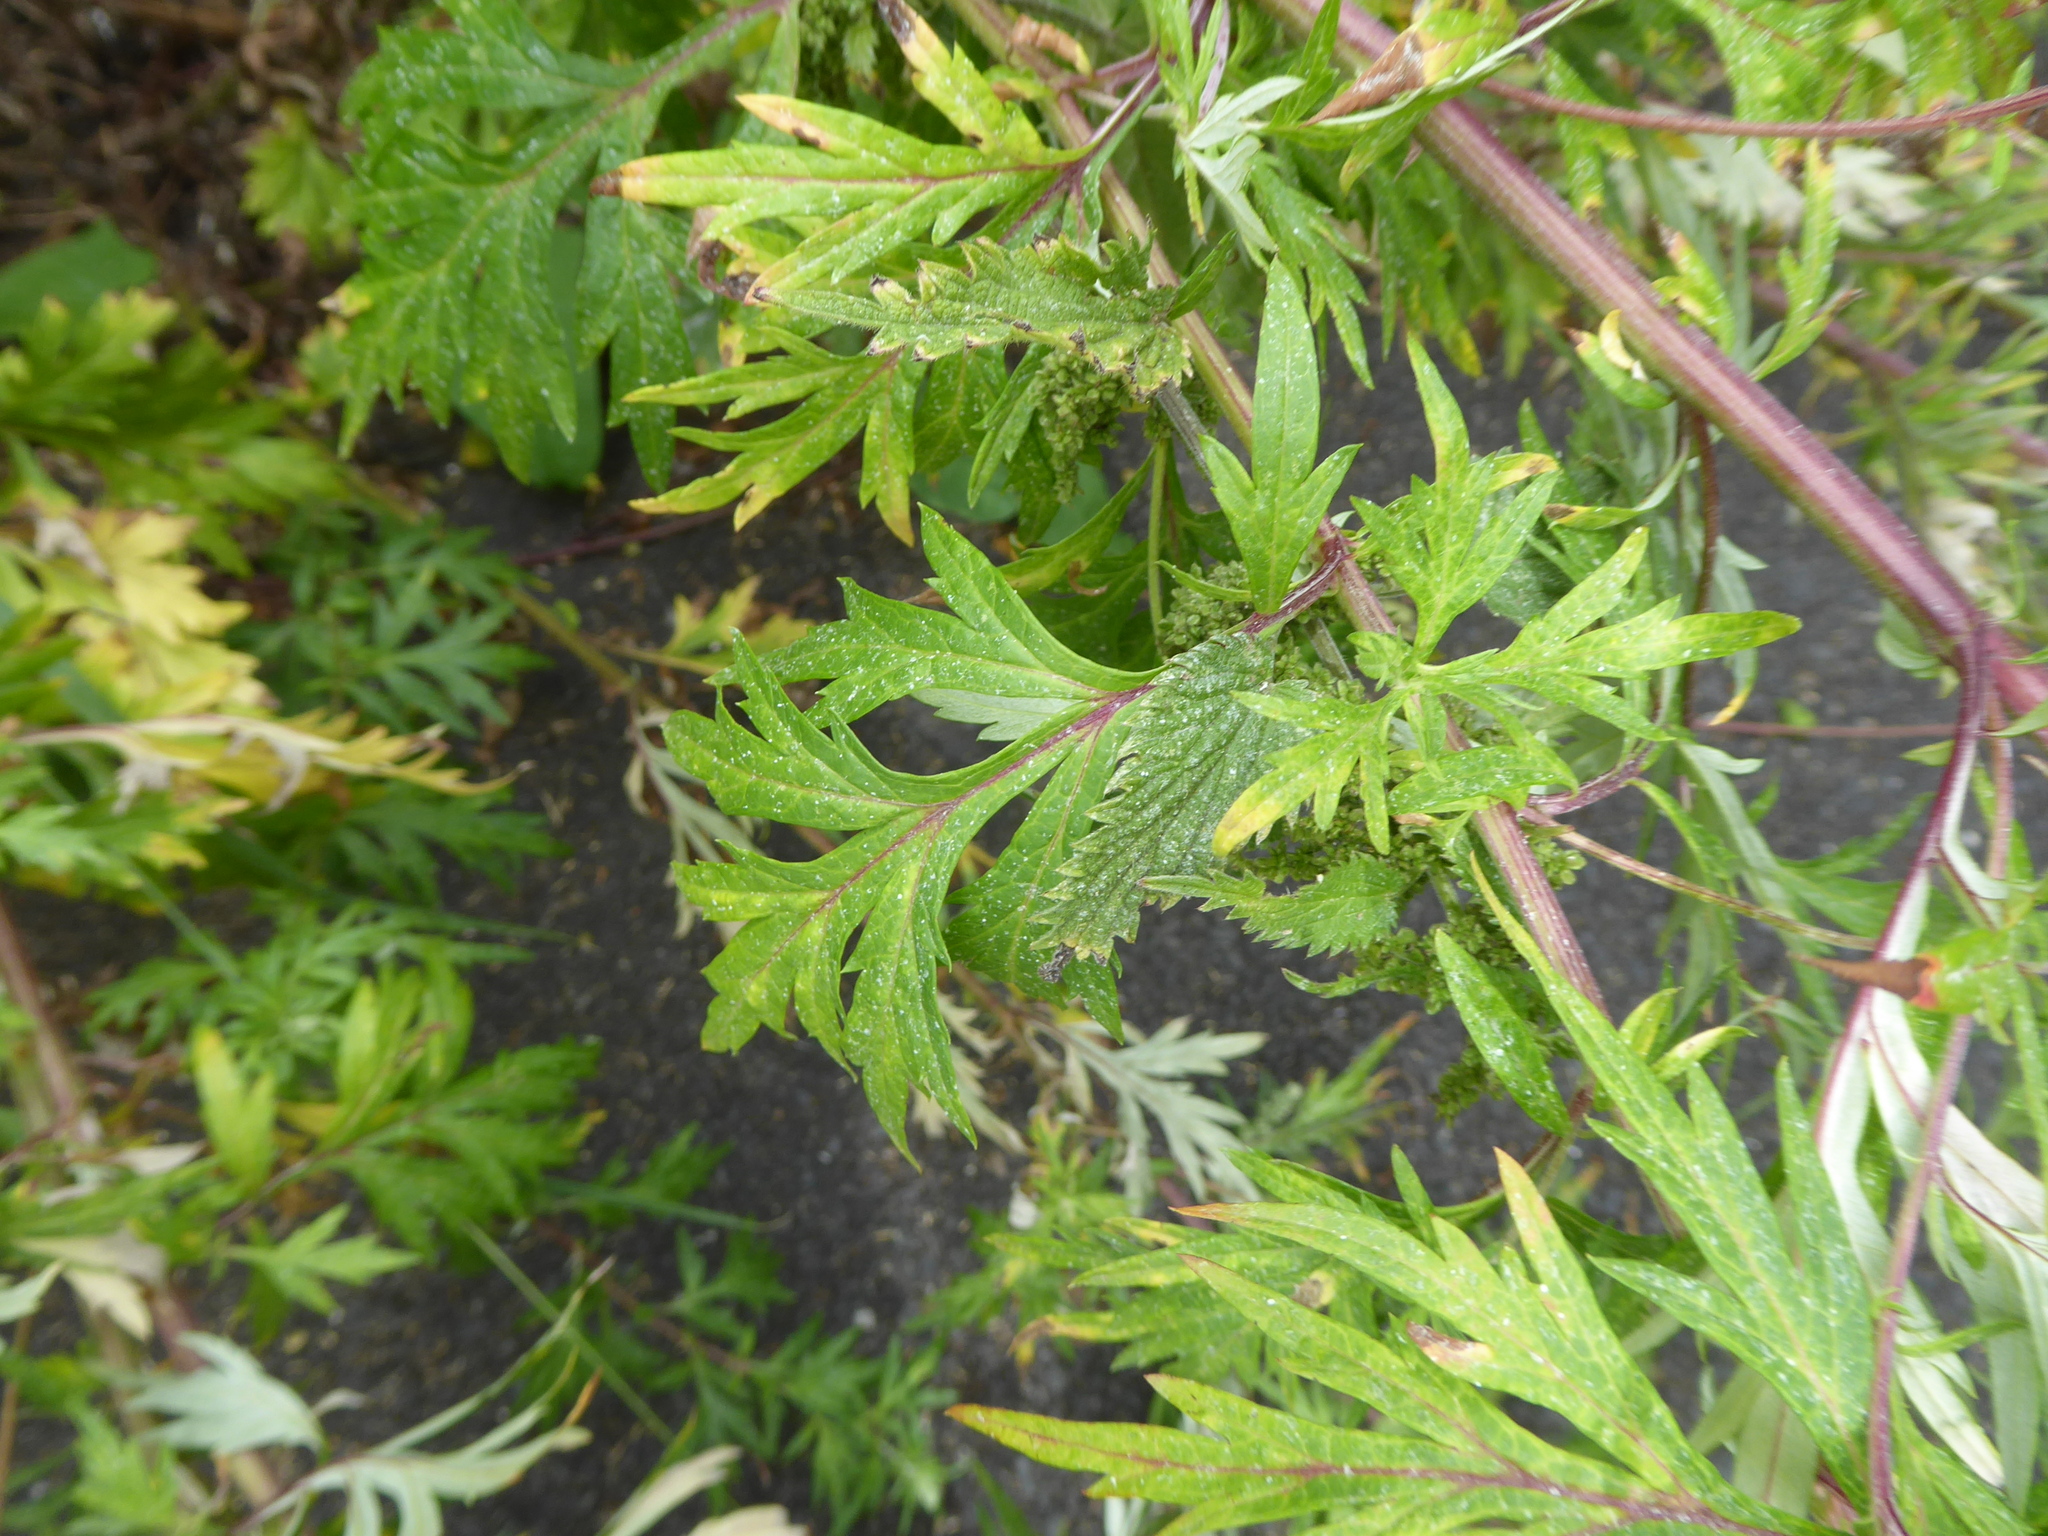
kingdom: Plantae
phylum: Tracheophyta
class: Magnoliopsida
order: Asterales
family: Asteraceae
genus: Artemisia
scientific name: Artemisia vulgaris
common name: Mugwort
